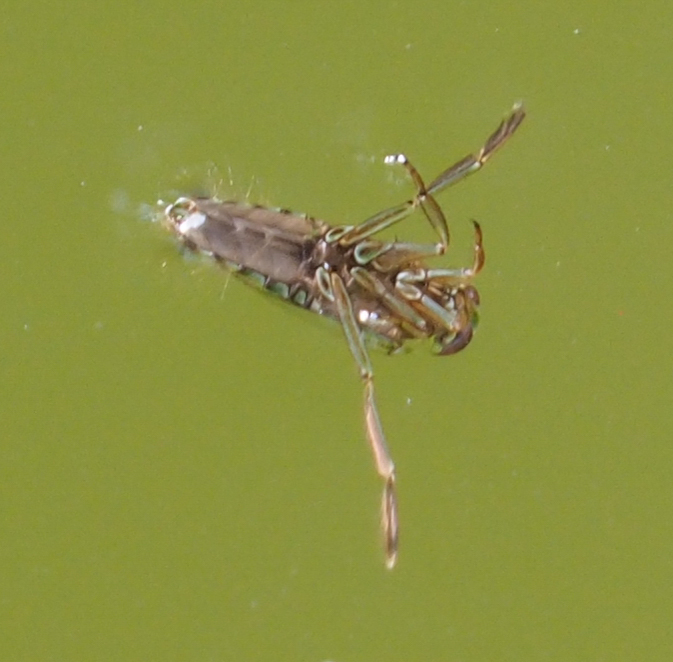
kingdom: Animalia
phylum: Arthropoda
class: Insecta
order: Hemiptera
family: Notonectidae
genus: Notonecta
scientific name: Notonecta
